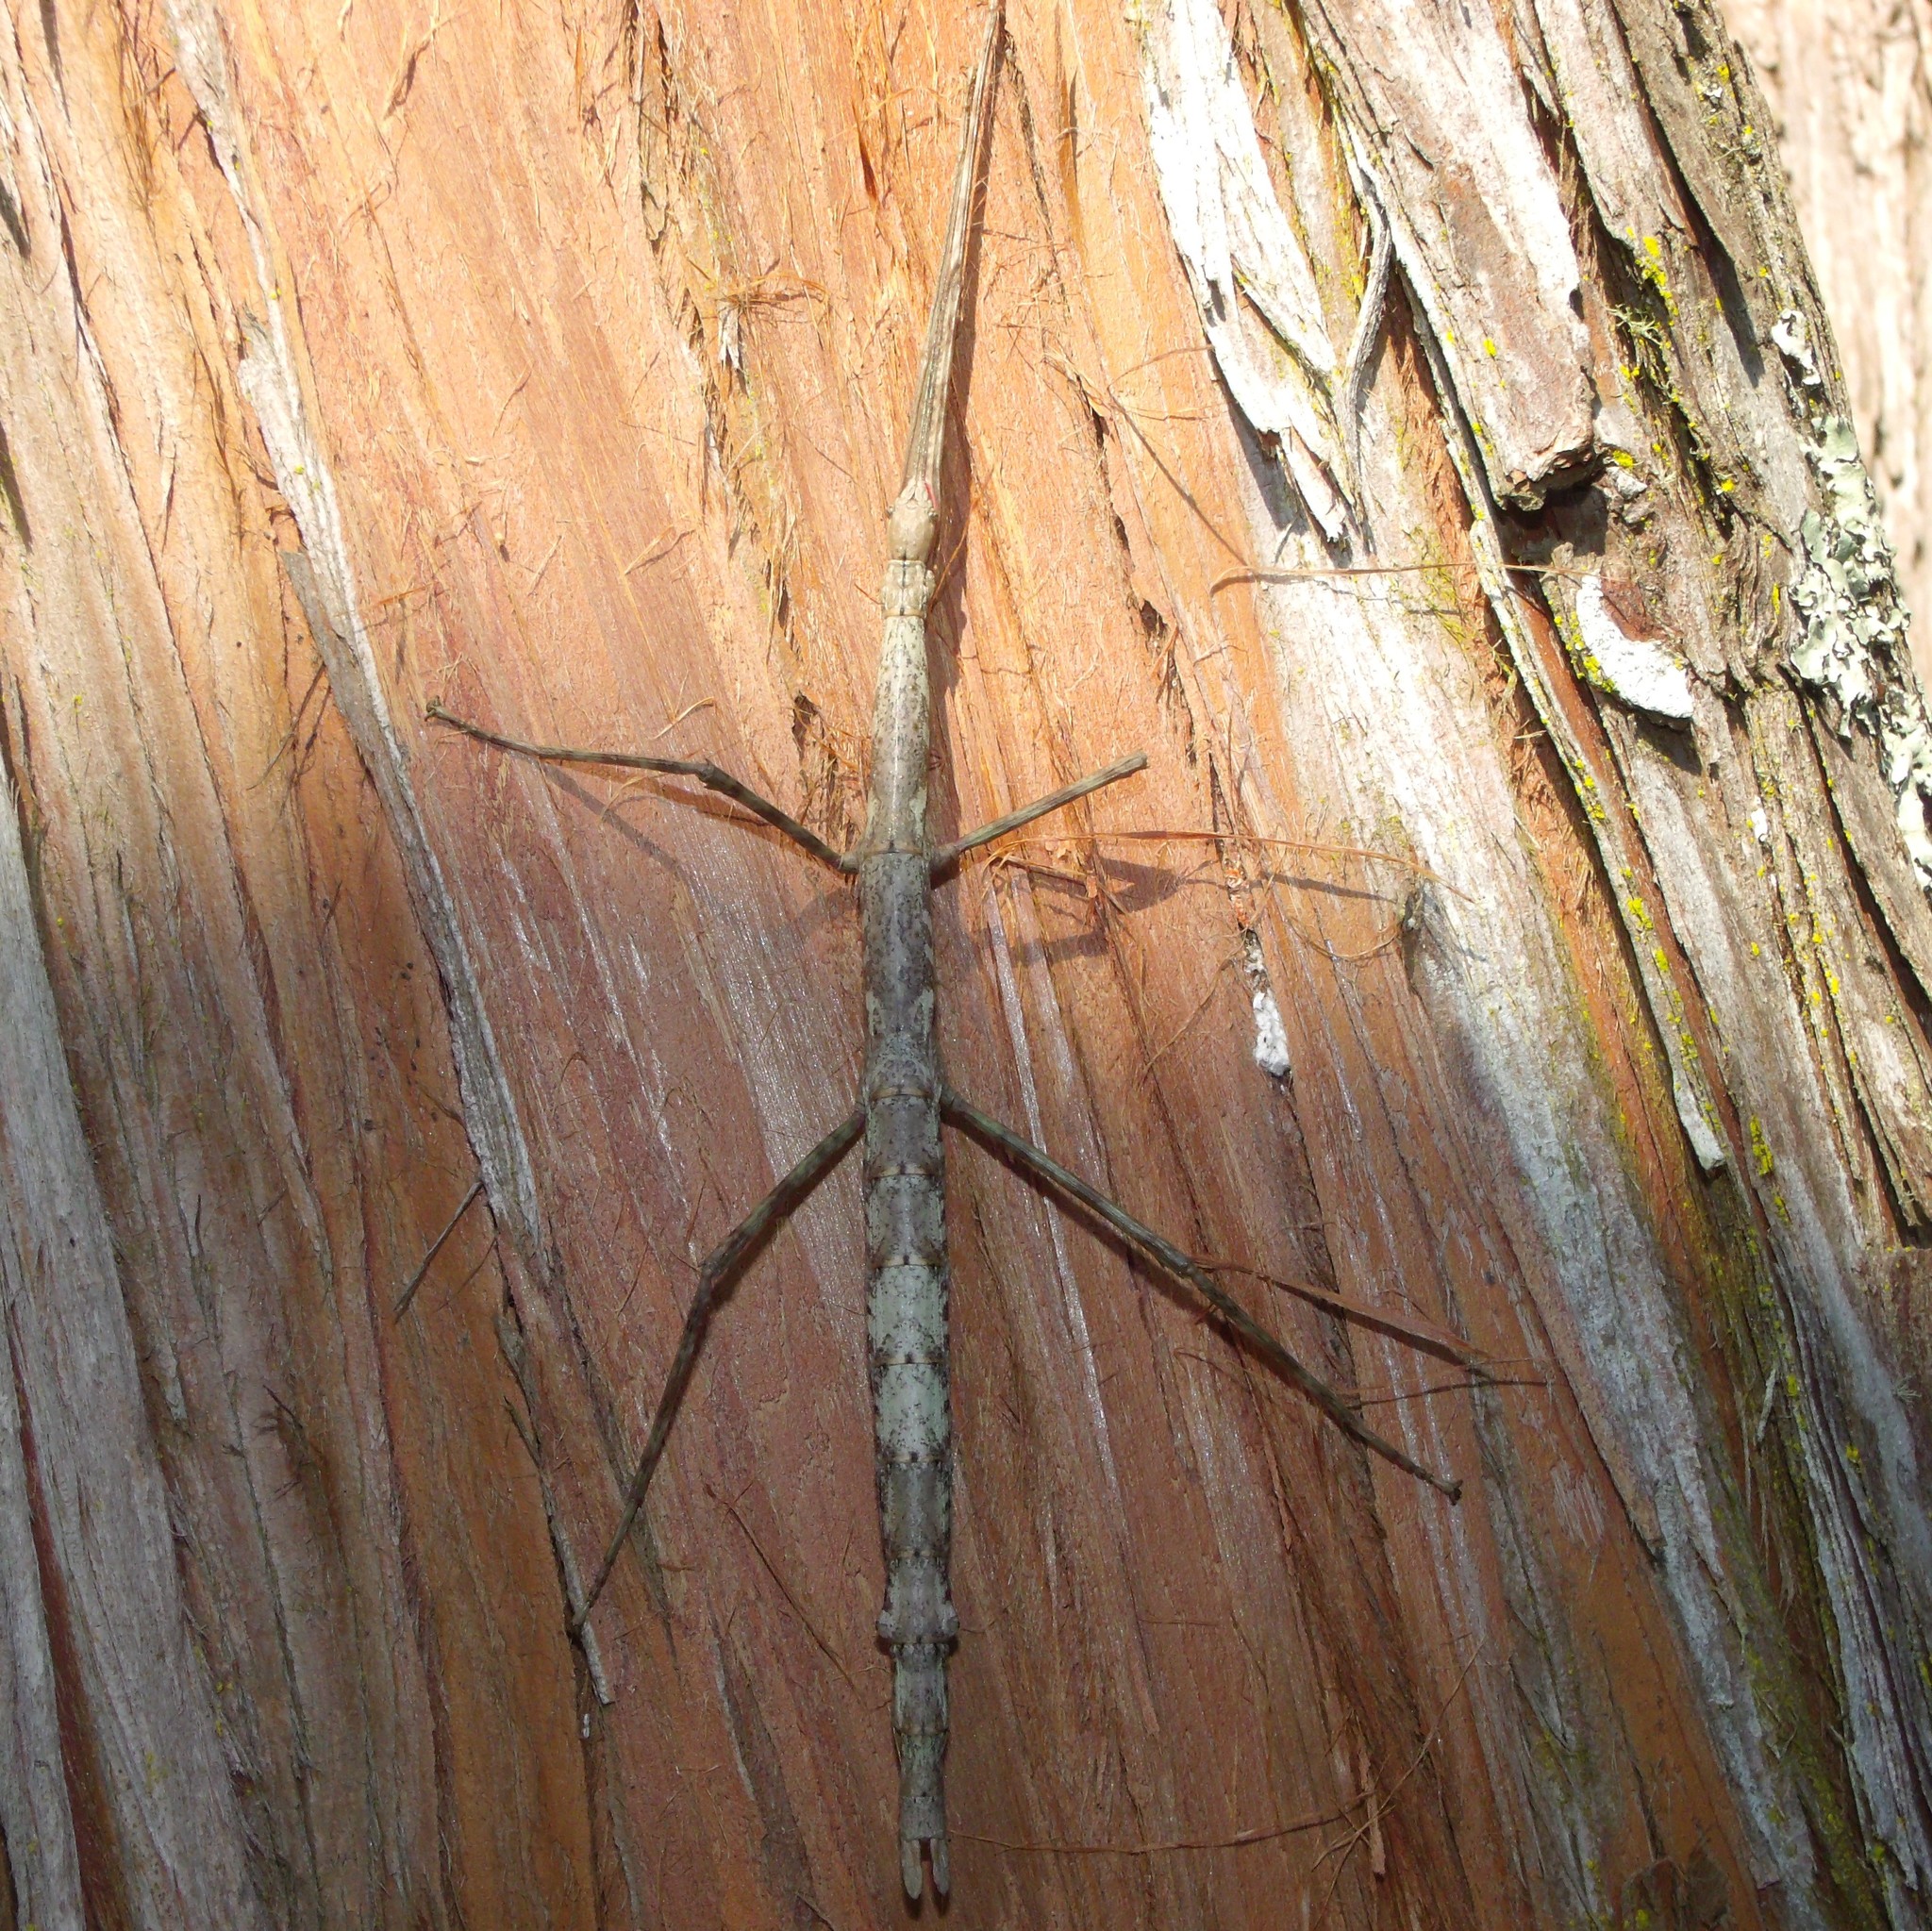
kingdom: Animalia
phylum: Arthropoda
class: Insecta
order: Phasmida
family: Phasmatidae
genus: Acanthoxyla
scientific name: Acanthoxyla inermis
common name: Unarmed stick insect
